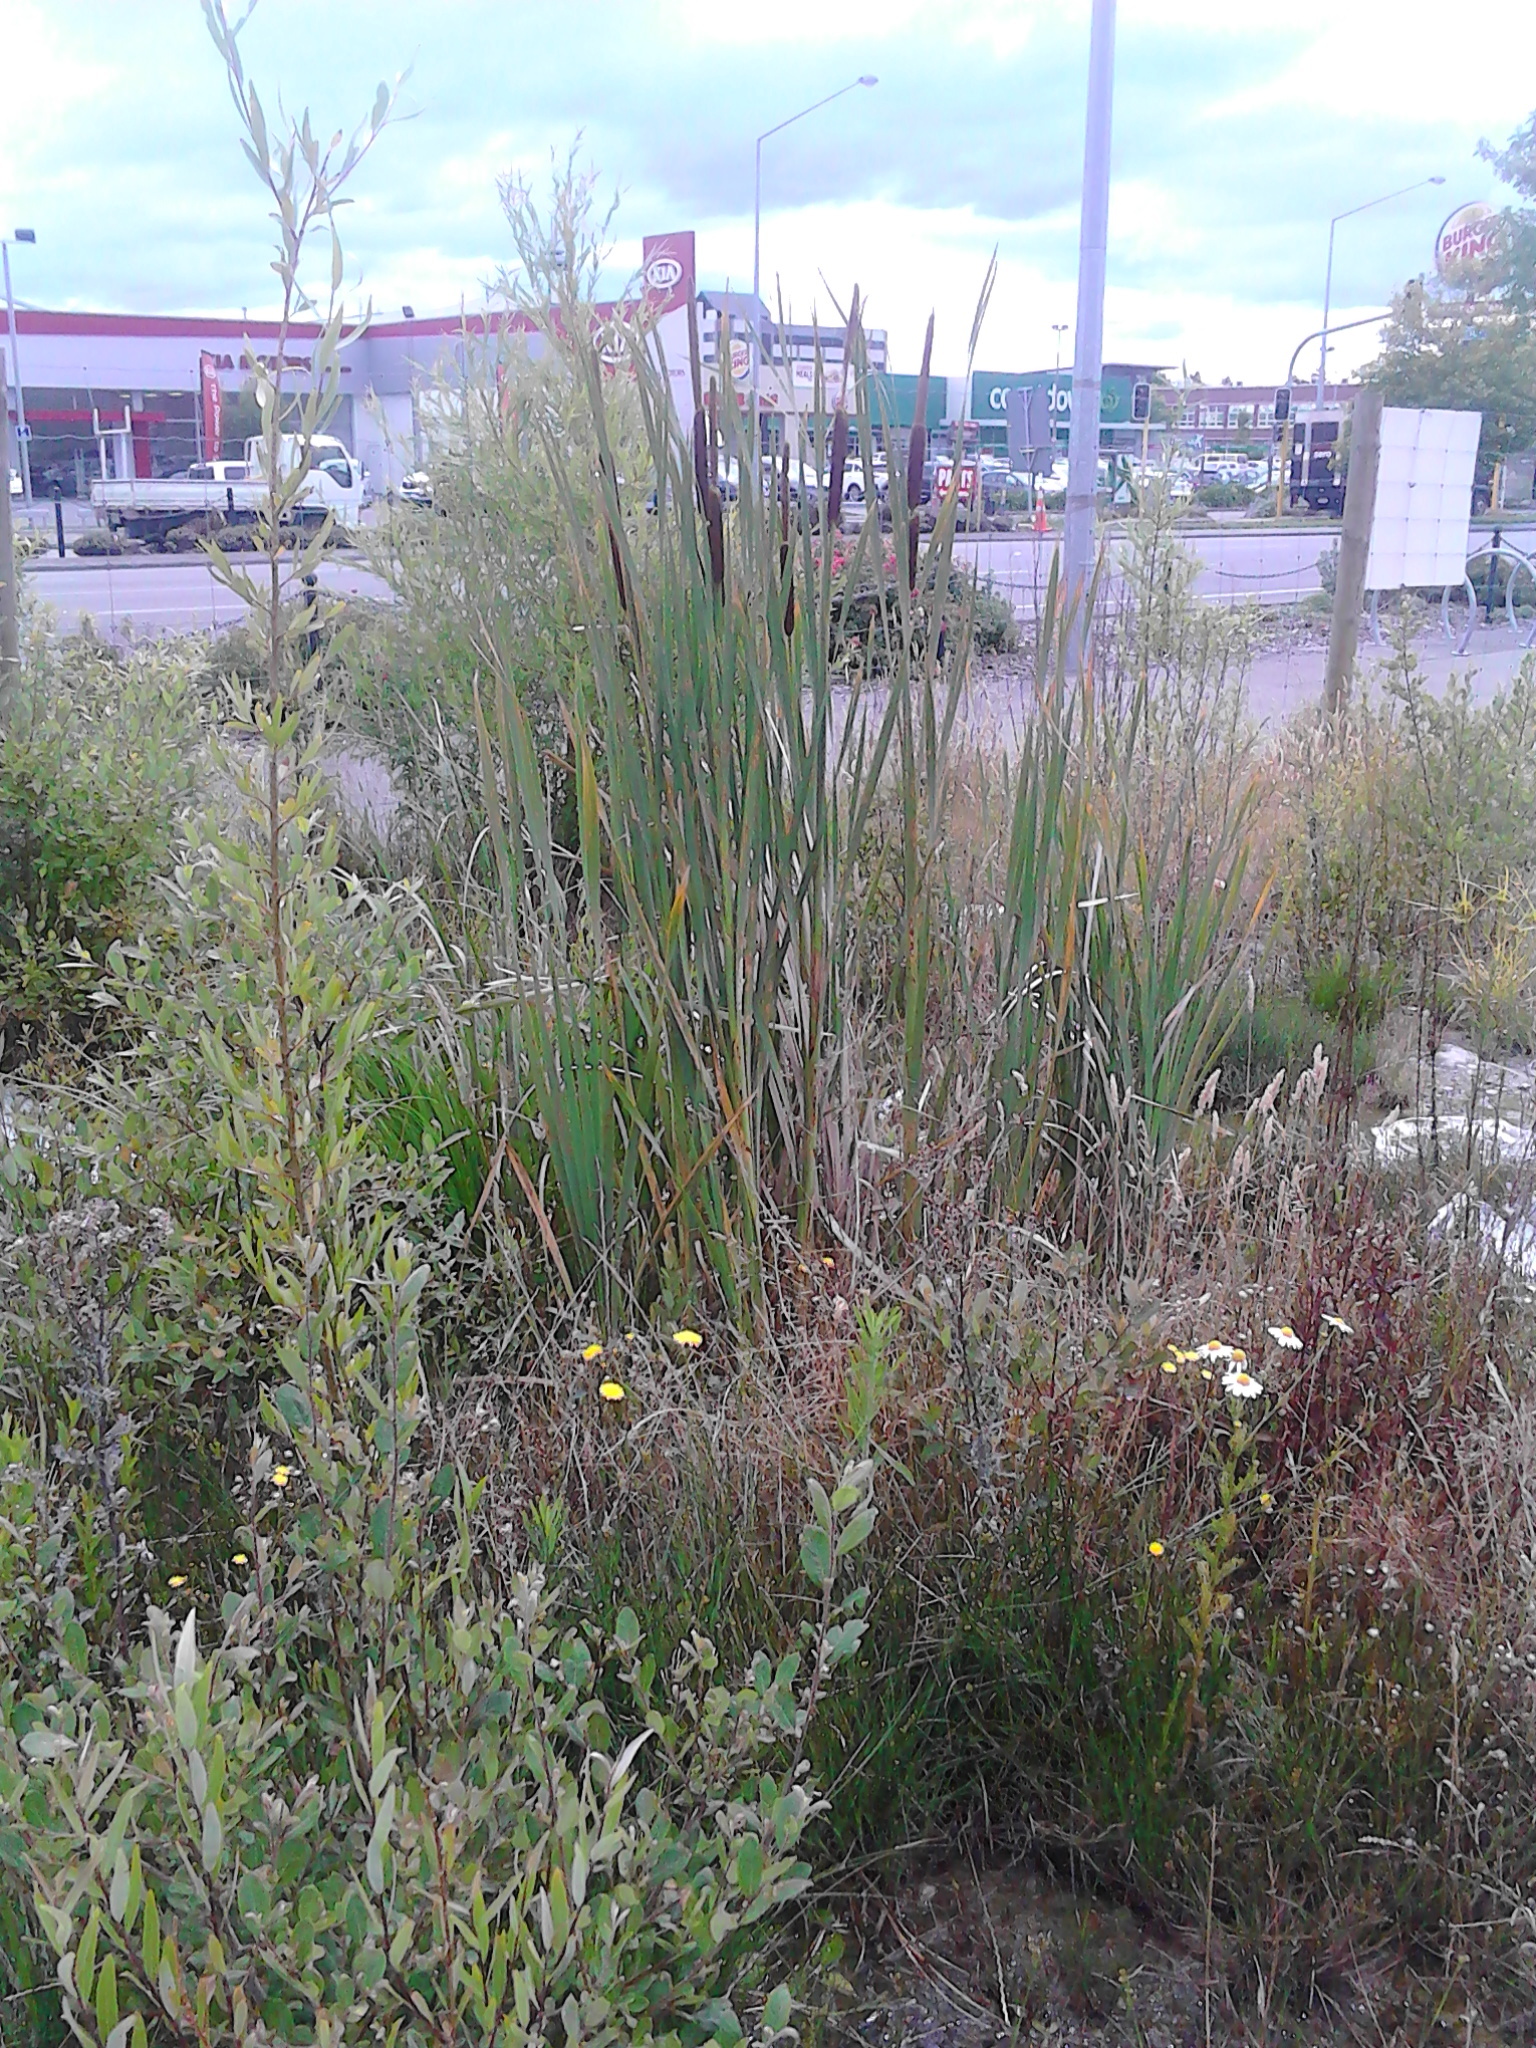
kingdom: Plantae
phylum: Tracheophyta
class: Liliopsida
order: Poales
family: Typhaceae
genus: Typha
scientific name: Typha orientalis
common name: Bullrush
